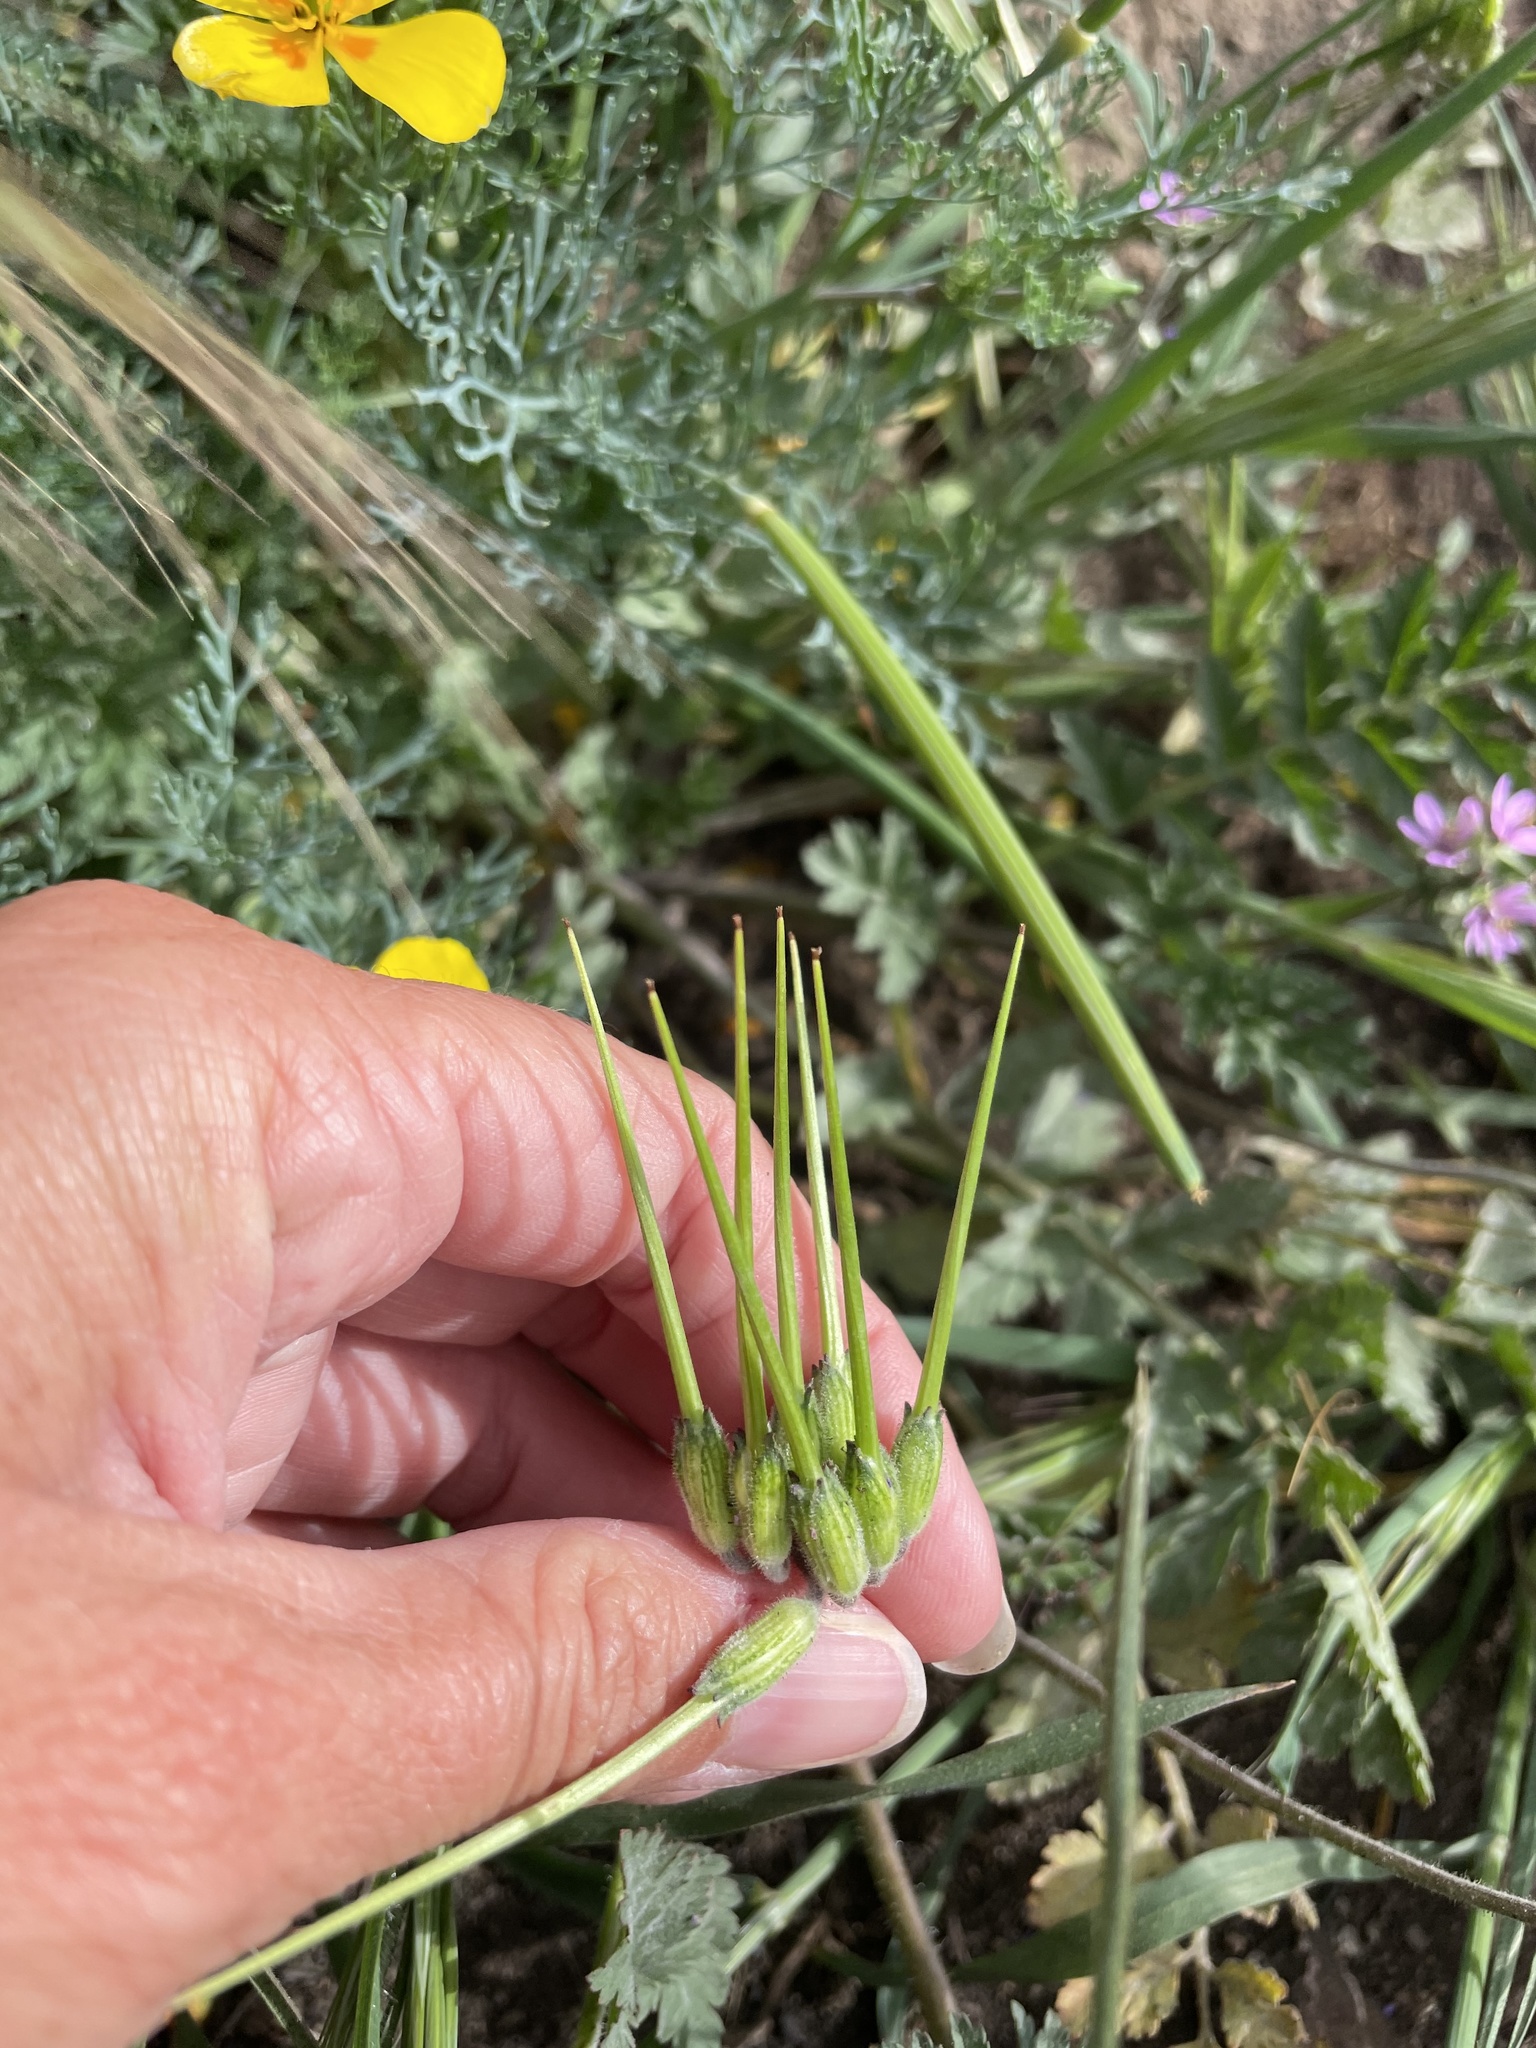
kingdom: Plantae
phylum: Tracheophyta
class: Magnoliopsida
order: Geraniales
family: Geraniaceae
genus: Erodium
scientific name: Erodium moschatum
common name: Musk stork's-bill
